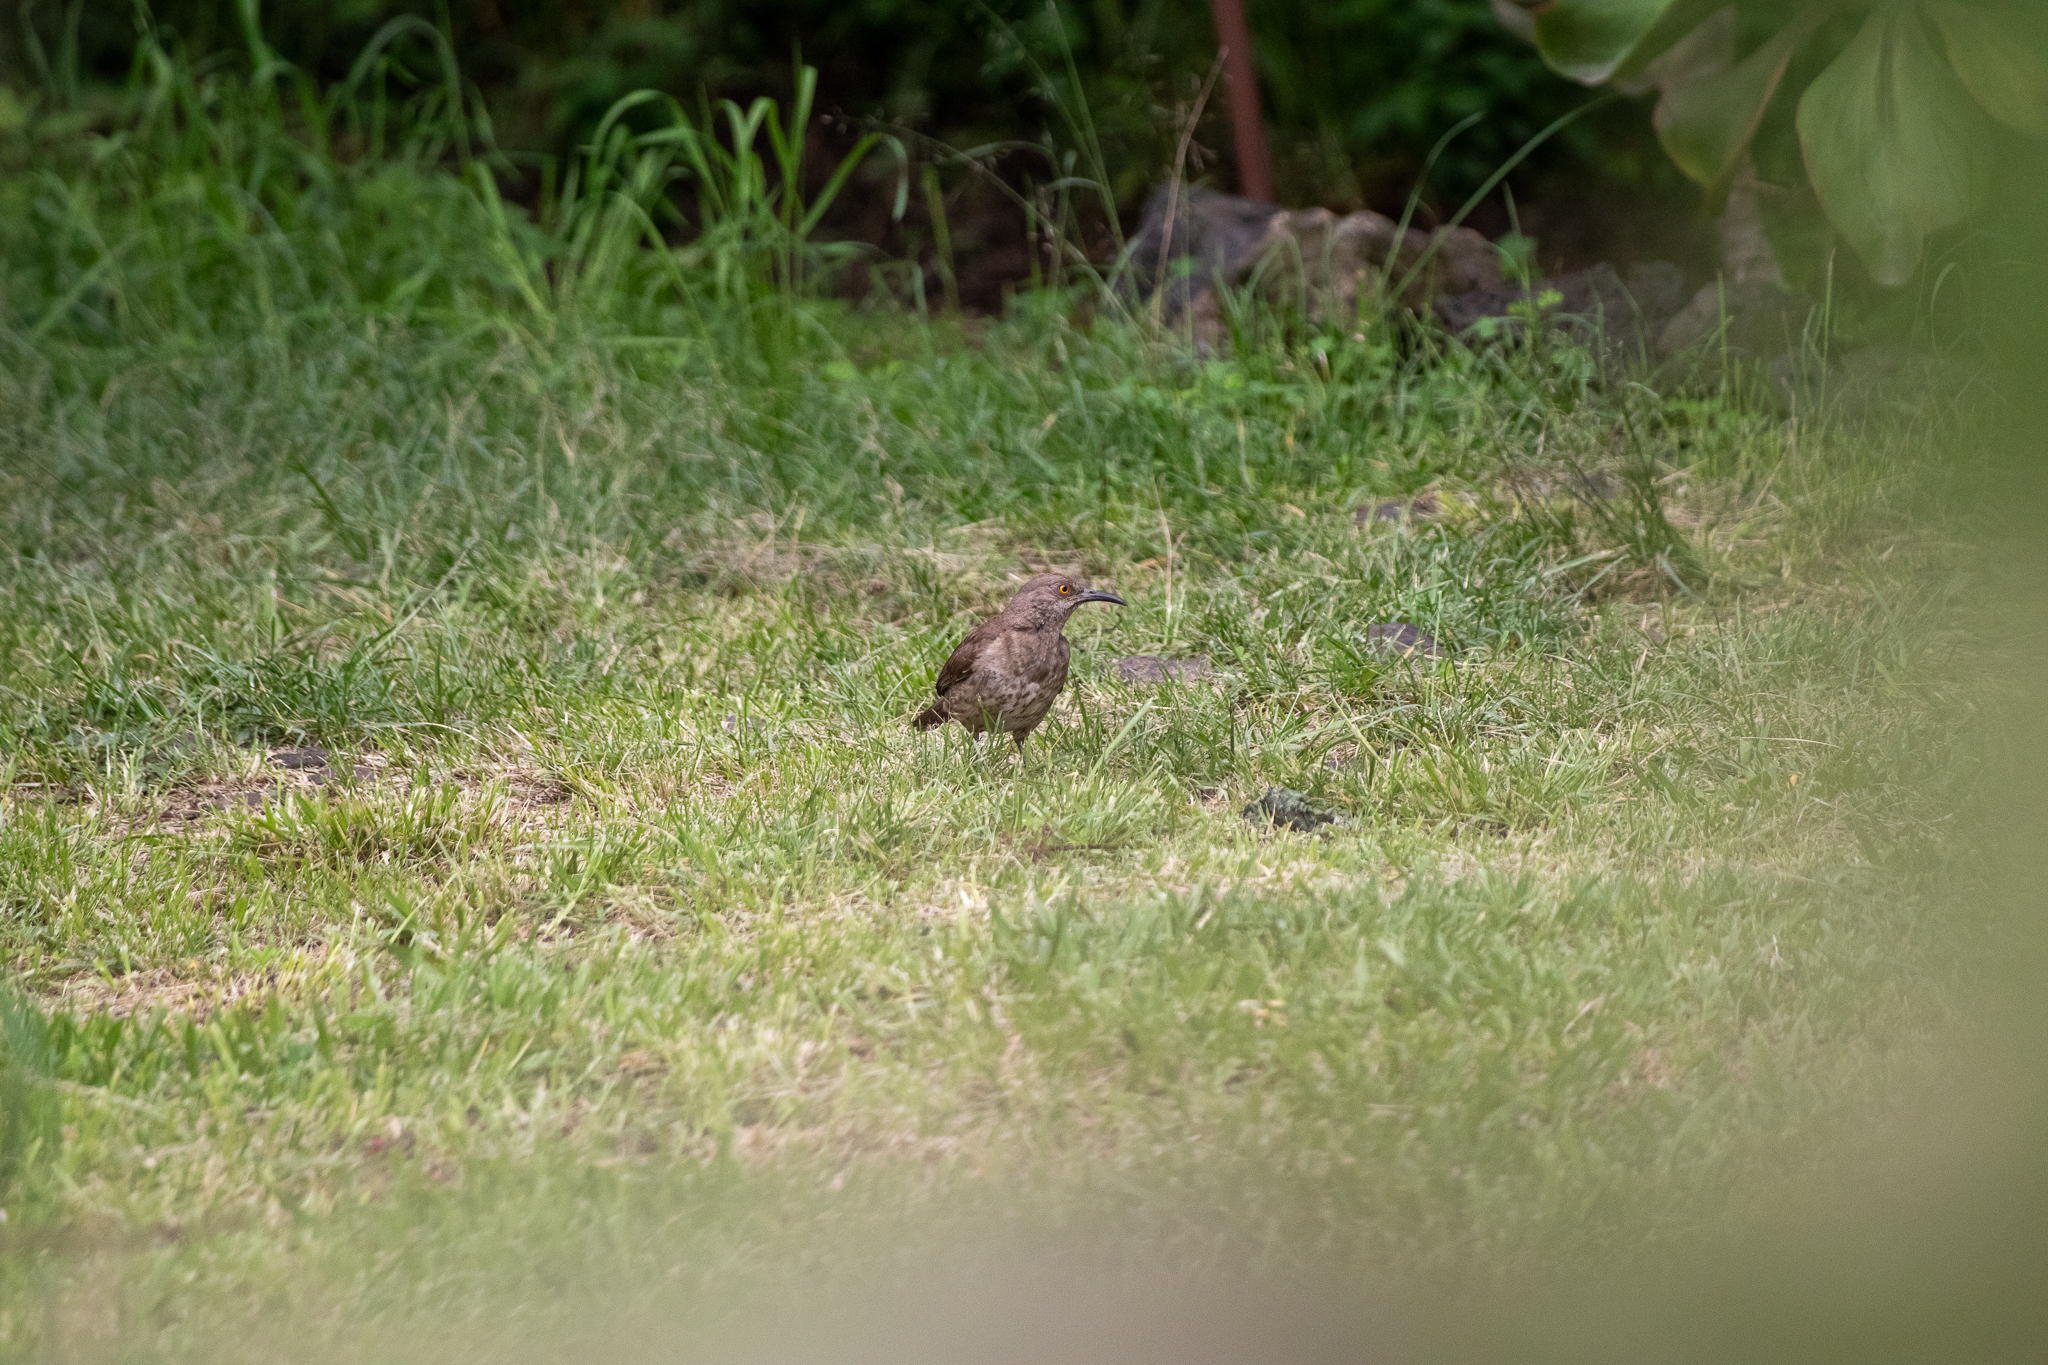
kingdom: Animalia
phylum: Chordata
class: Aves
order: Passeriformes
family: Mimidae
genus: Toxostoma
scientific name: Toxostoma curvirostre
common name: Curve-billed thrasher
